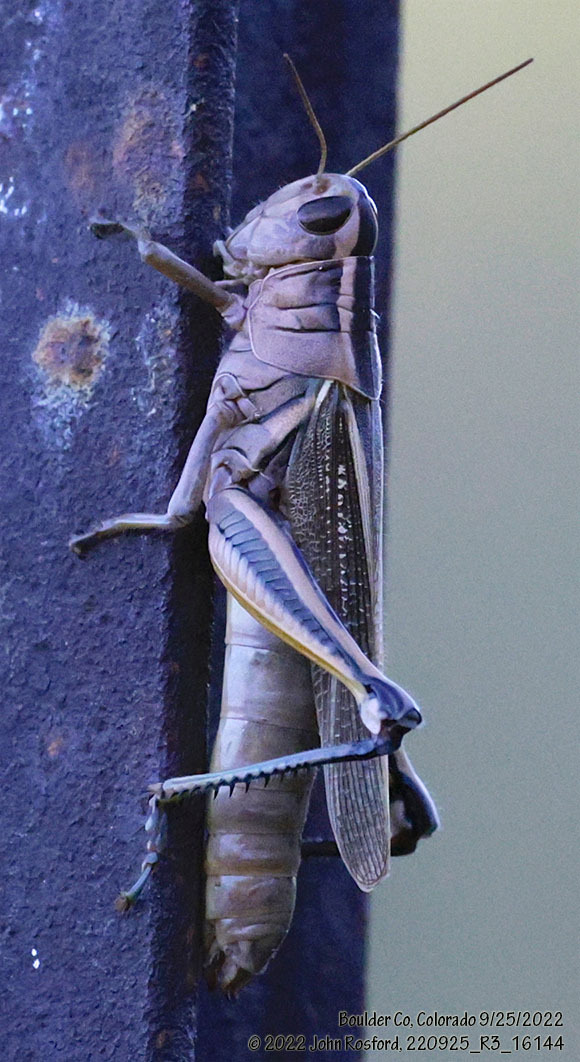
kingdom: Animalia
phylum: Arthropoda
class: Insecta
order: Orthoptera
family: Acrididae
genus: Melanoplus
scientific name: Melanoplus bivittatus
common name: Two-striped grasshopper
